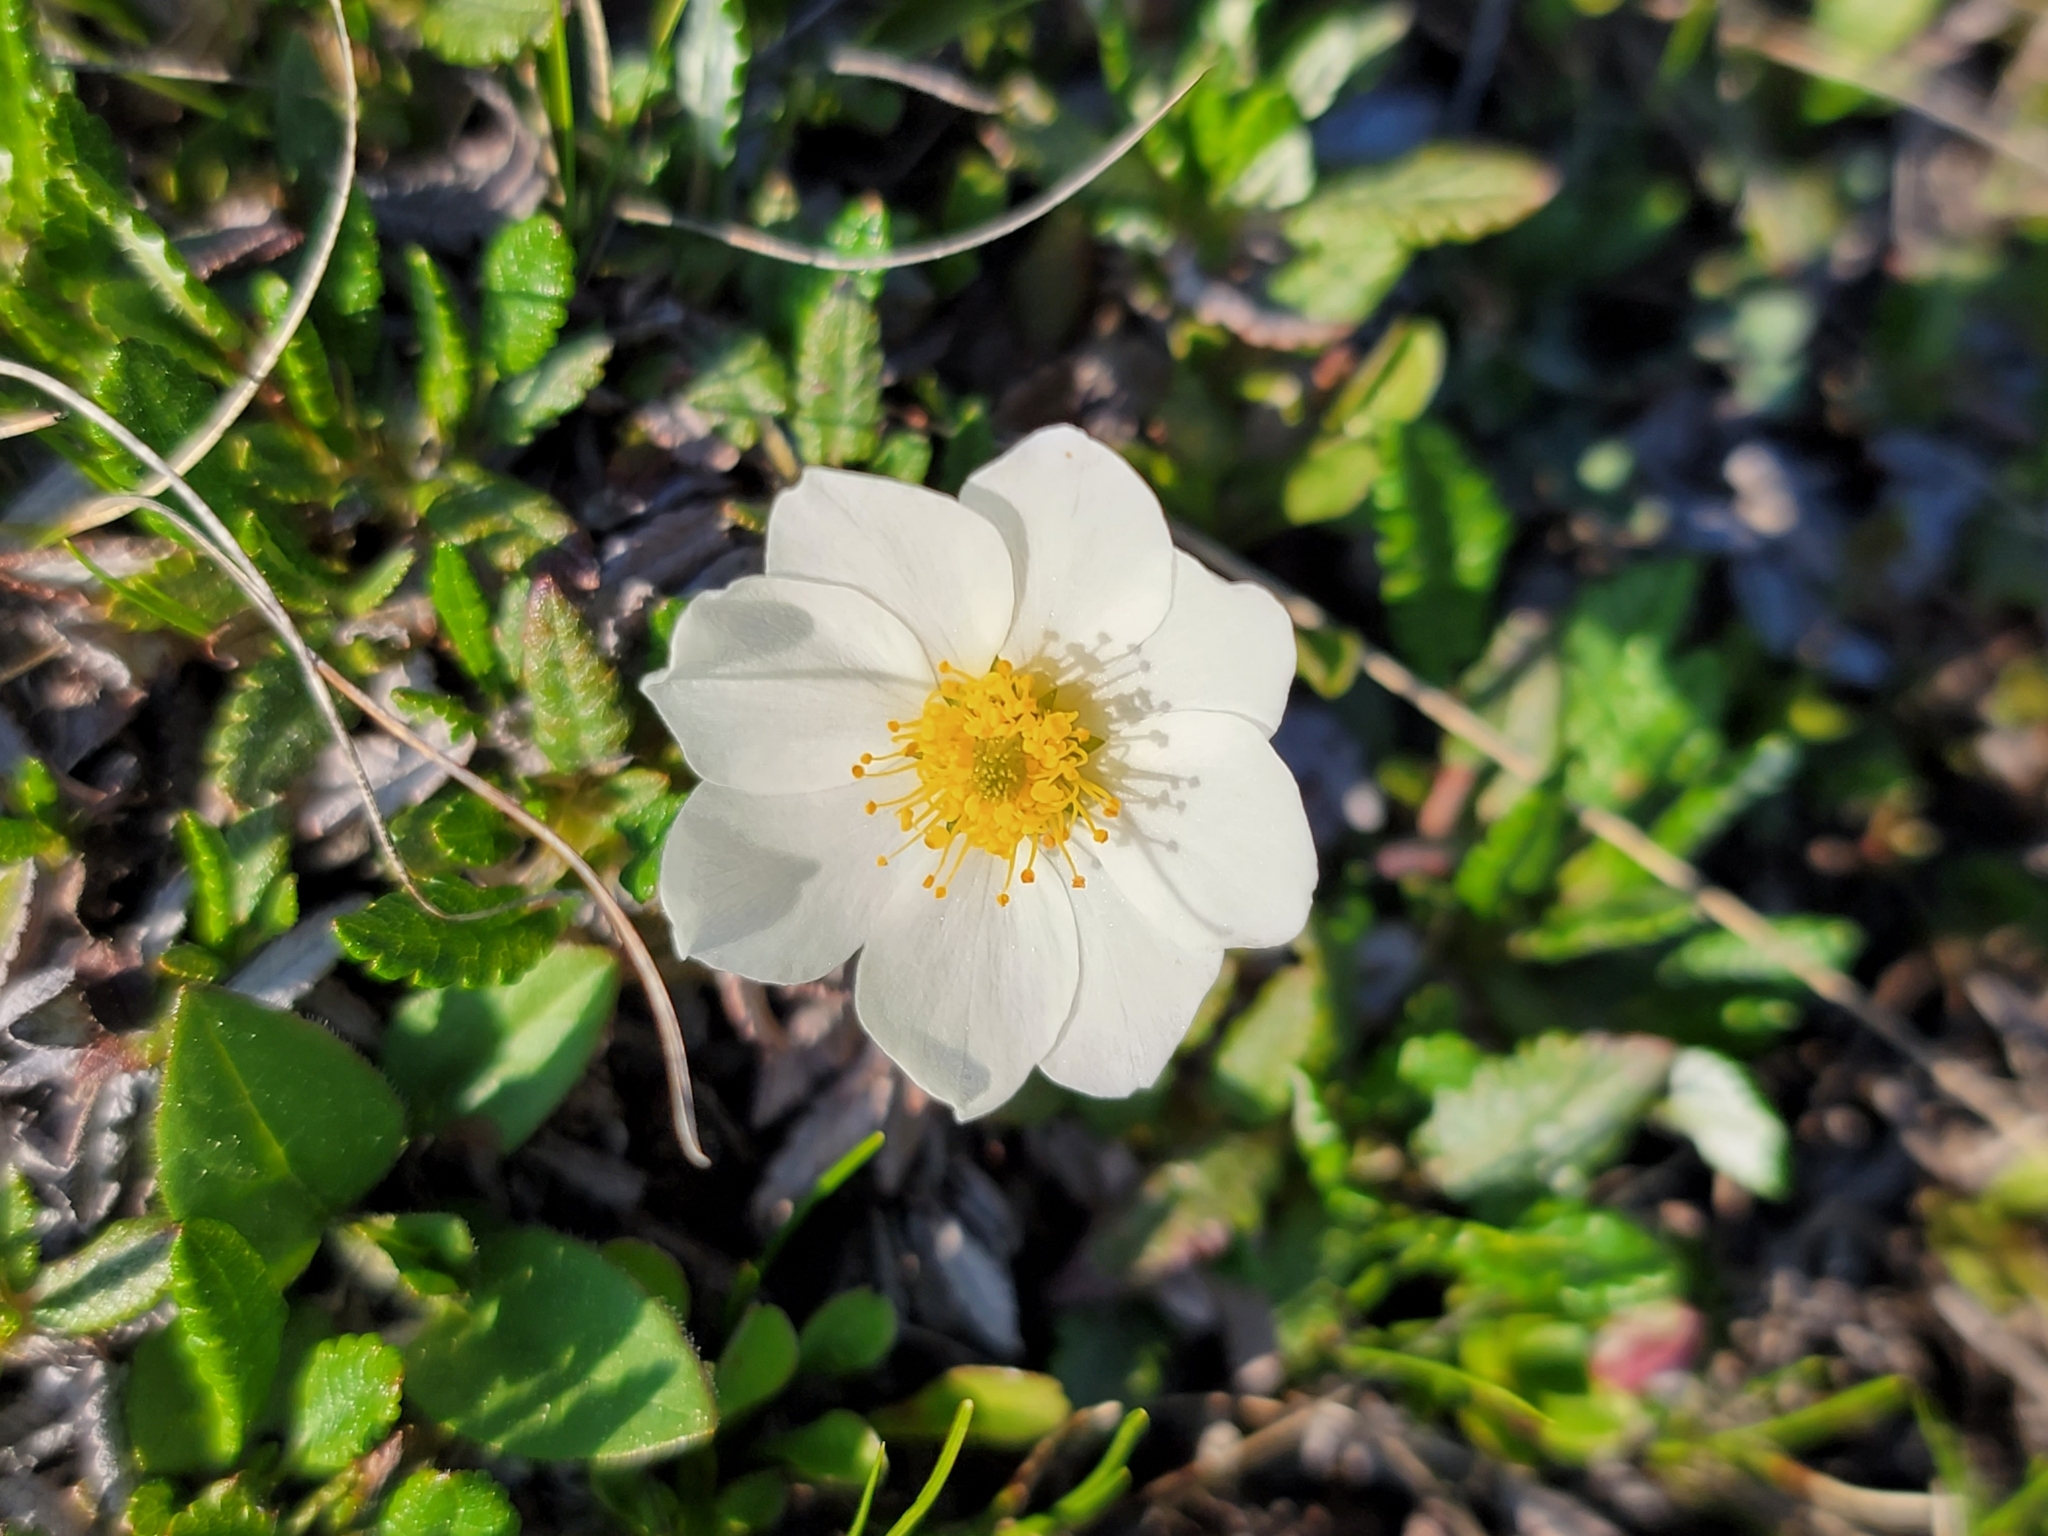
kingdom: Plantae
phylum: Tracheophyta
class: Magnoliopsida
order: Rosales
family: Rosaceae
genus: Dryas
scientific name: Dryas octopetala
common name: Eight-petal mountain-avens
